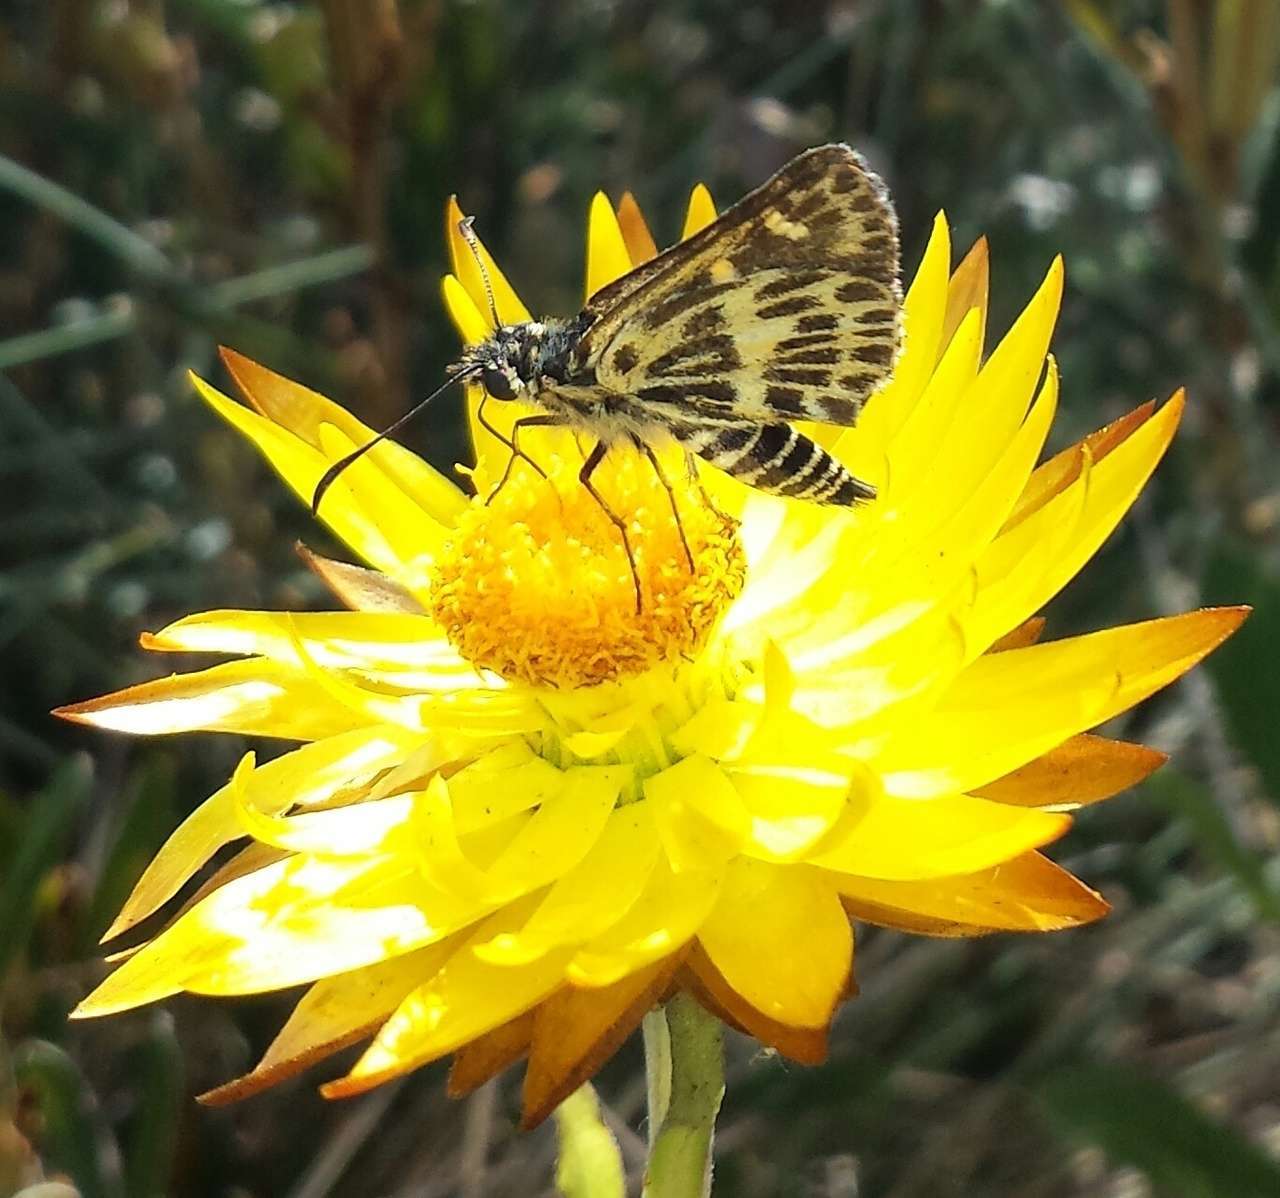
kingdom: Animalia
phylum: Arthropoda
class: Insecta
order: Lepidoptera
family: Hesperiidae
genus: Oreisplanus
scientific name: Oreisplanus munionga
